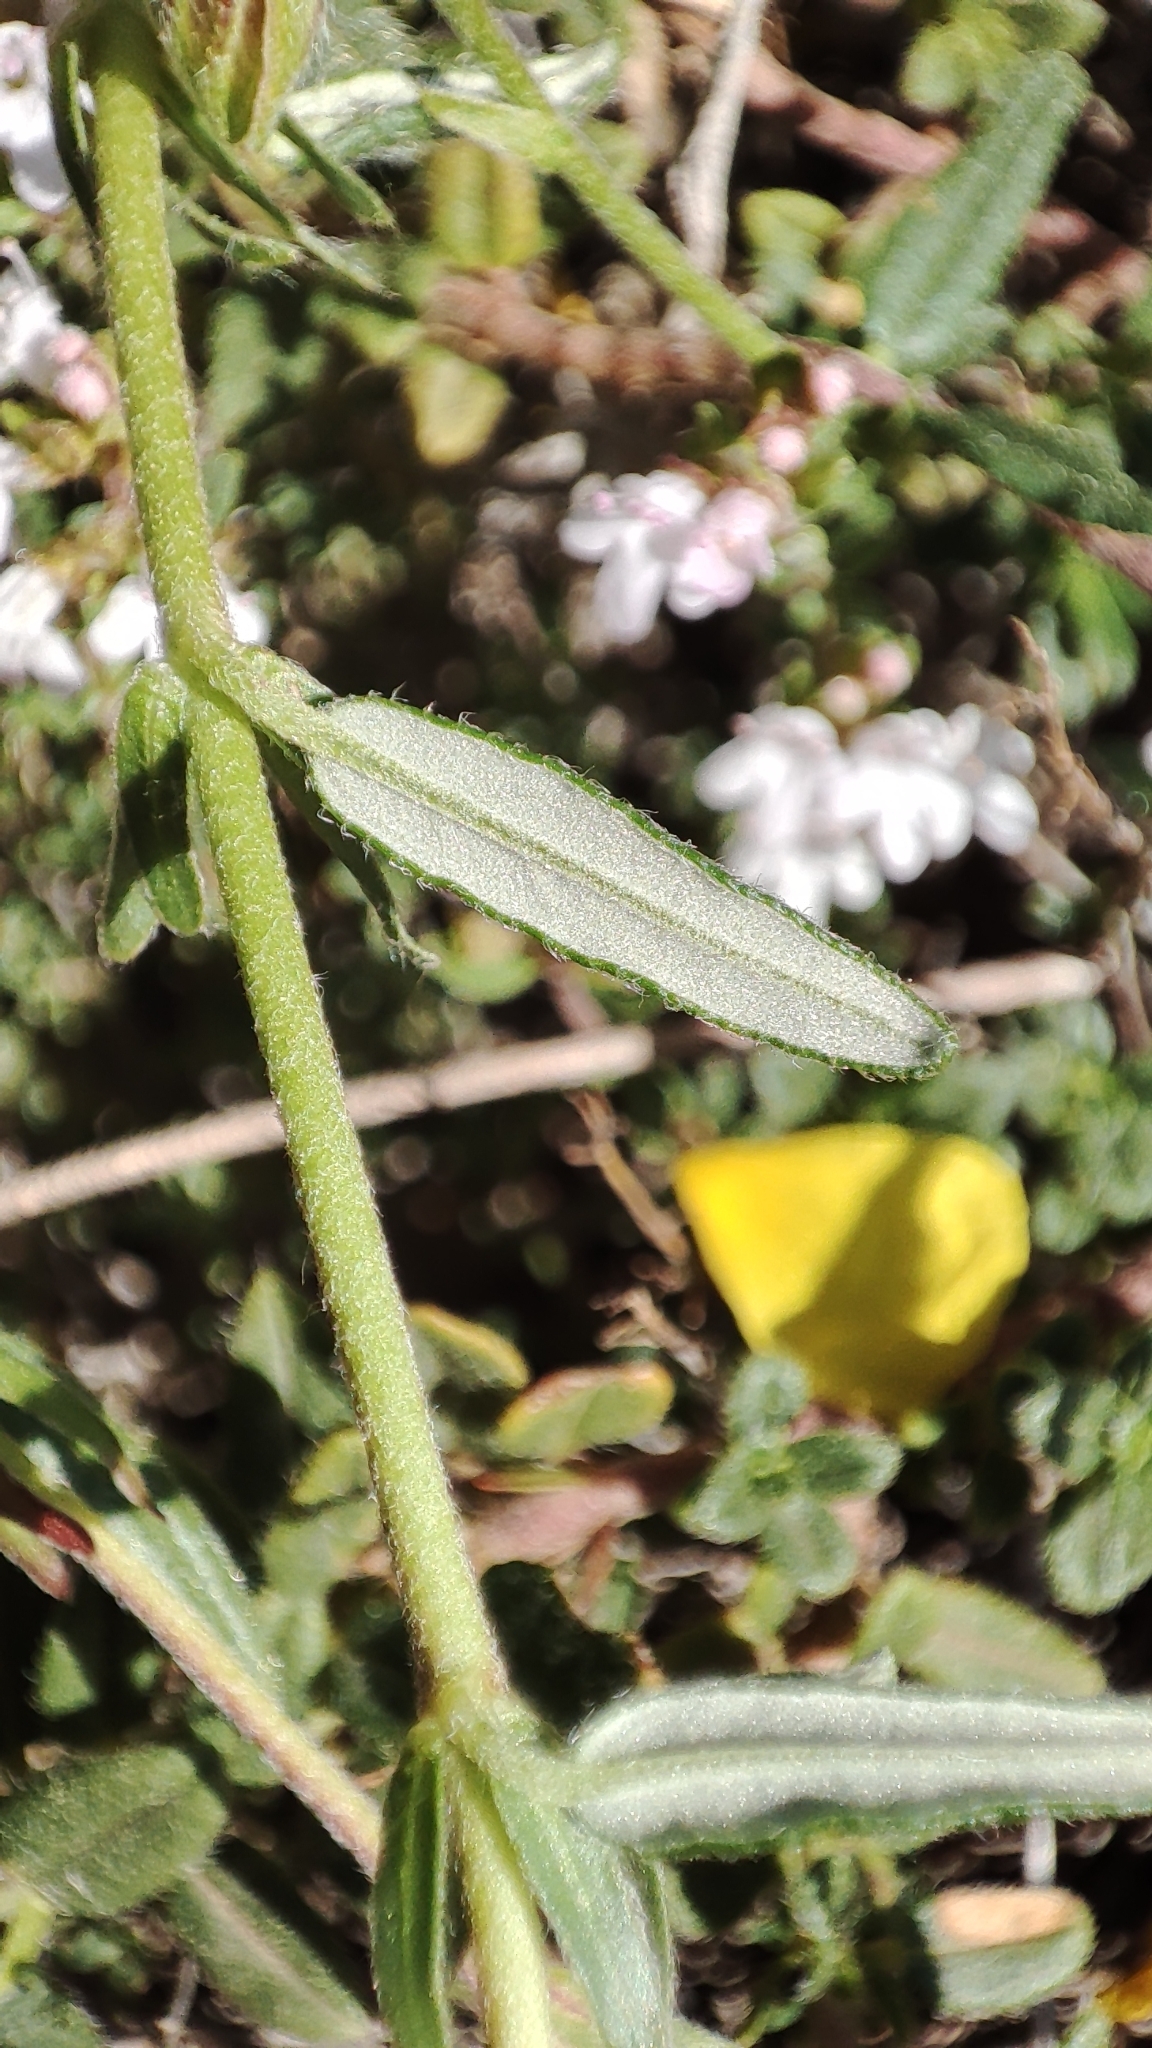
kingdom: Plantae
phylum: Tracheophyta
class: Magnoliopsida
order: Malvales
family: Cistaceae
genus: Helianthemum
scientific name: Helianthemum nummularium
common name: Common rock-rose
